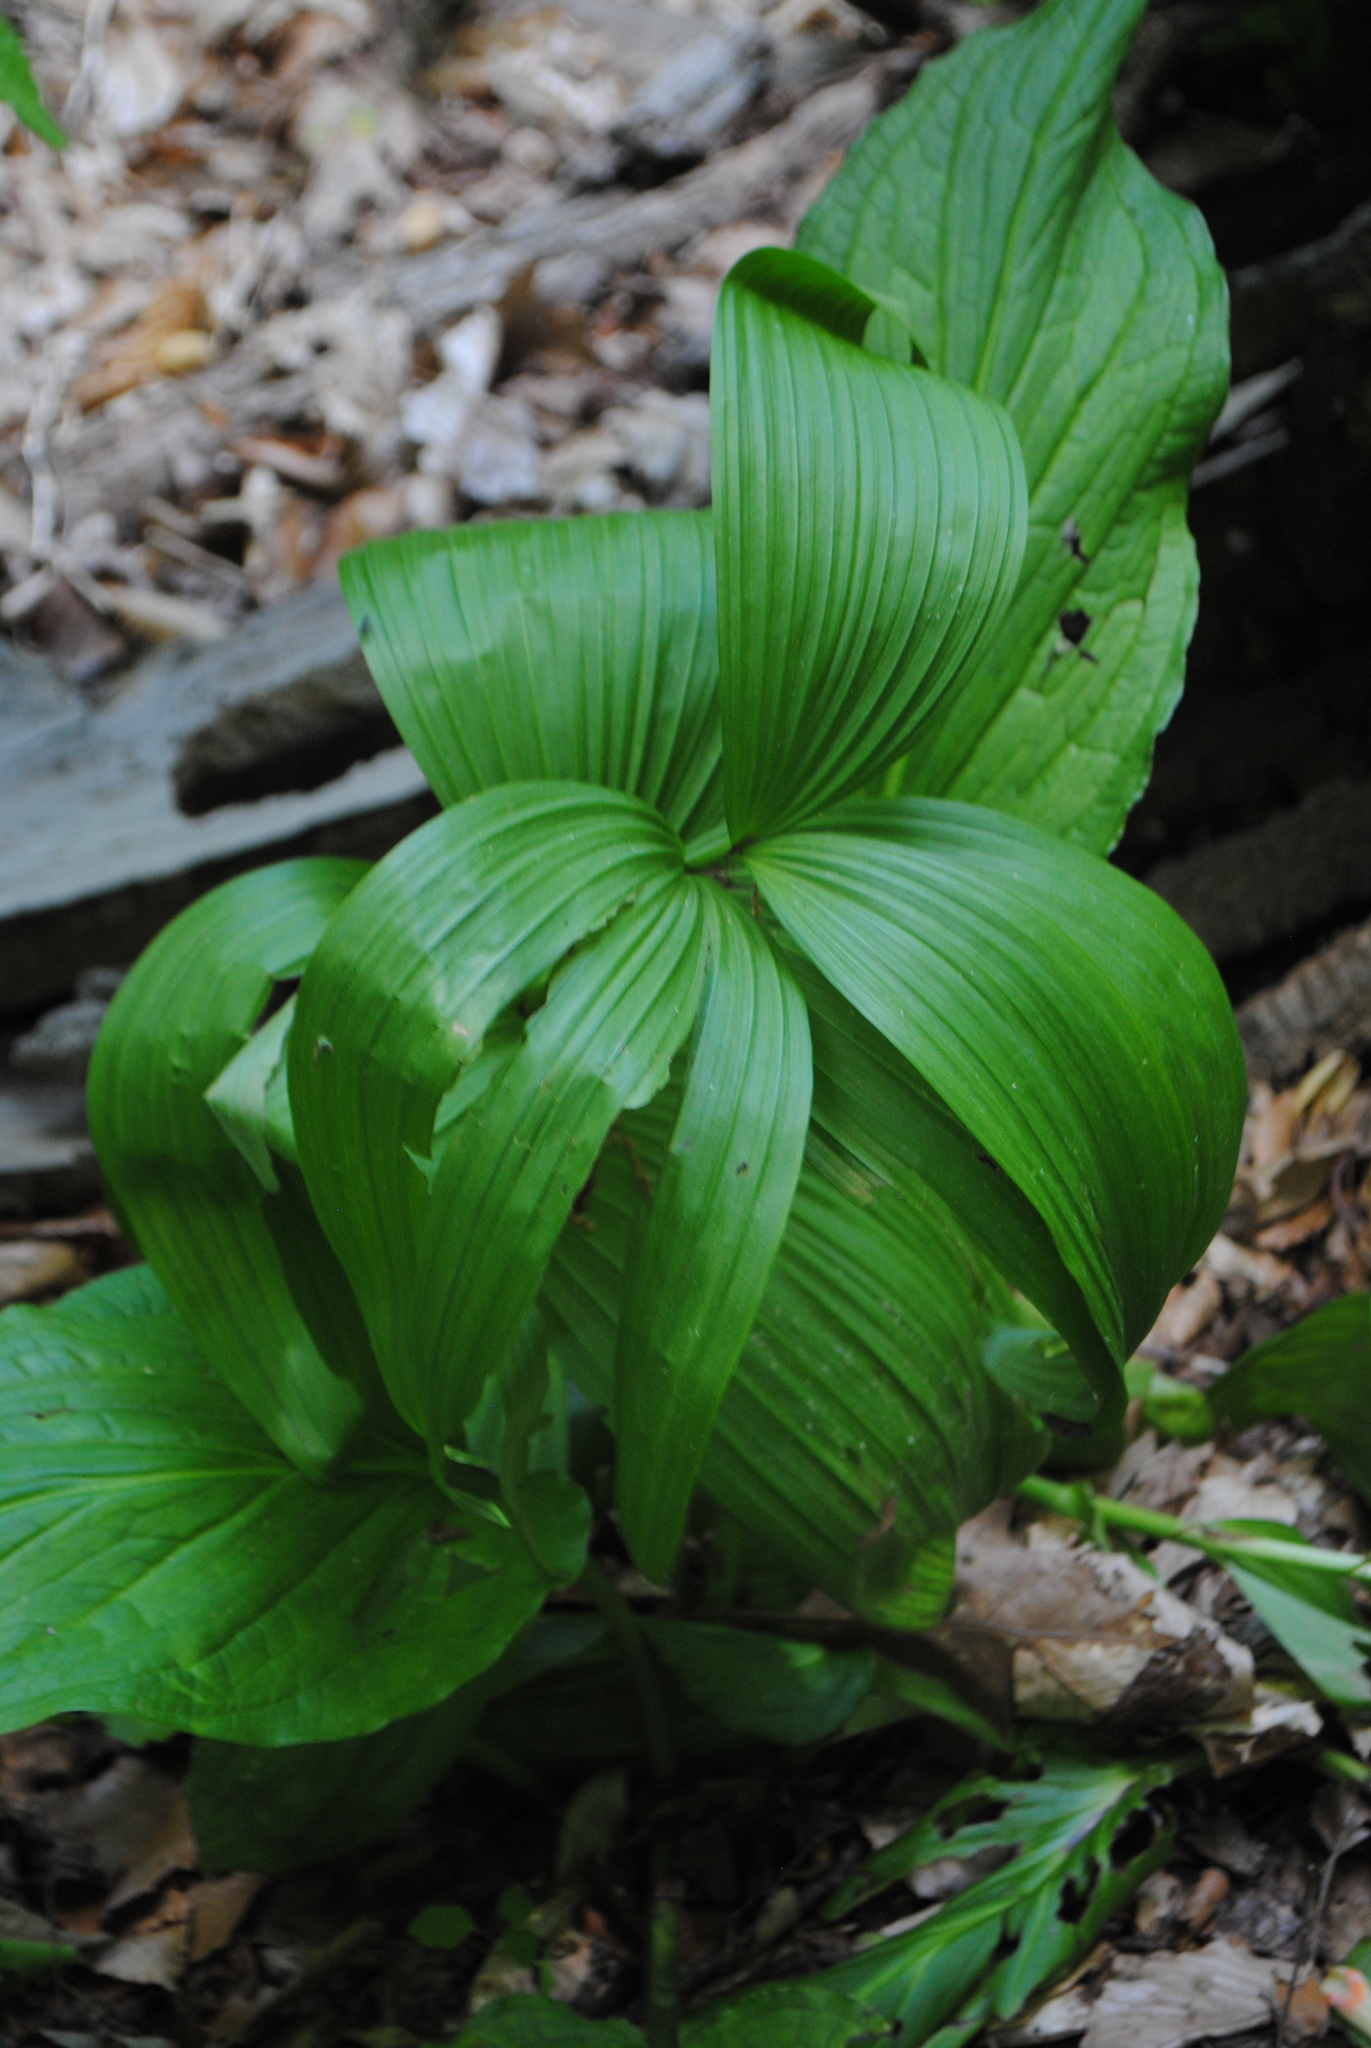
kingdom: Plantae
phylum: Tracheophyta
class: Liliopsida
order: Liliales
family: Melanthiaceae
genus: Veratrum
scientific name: Veratrum viride
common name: American false hellebore
